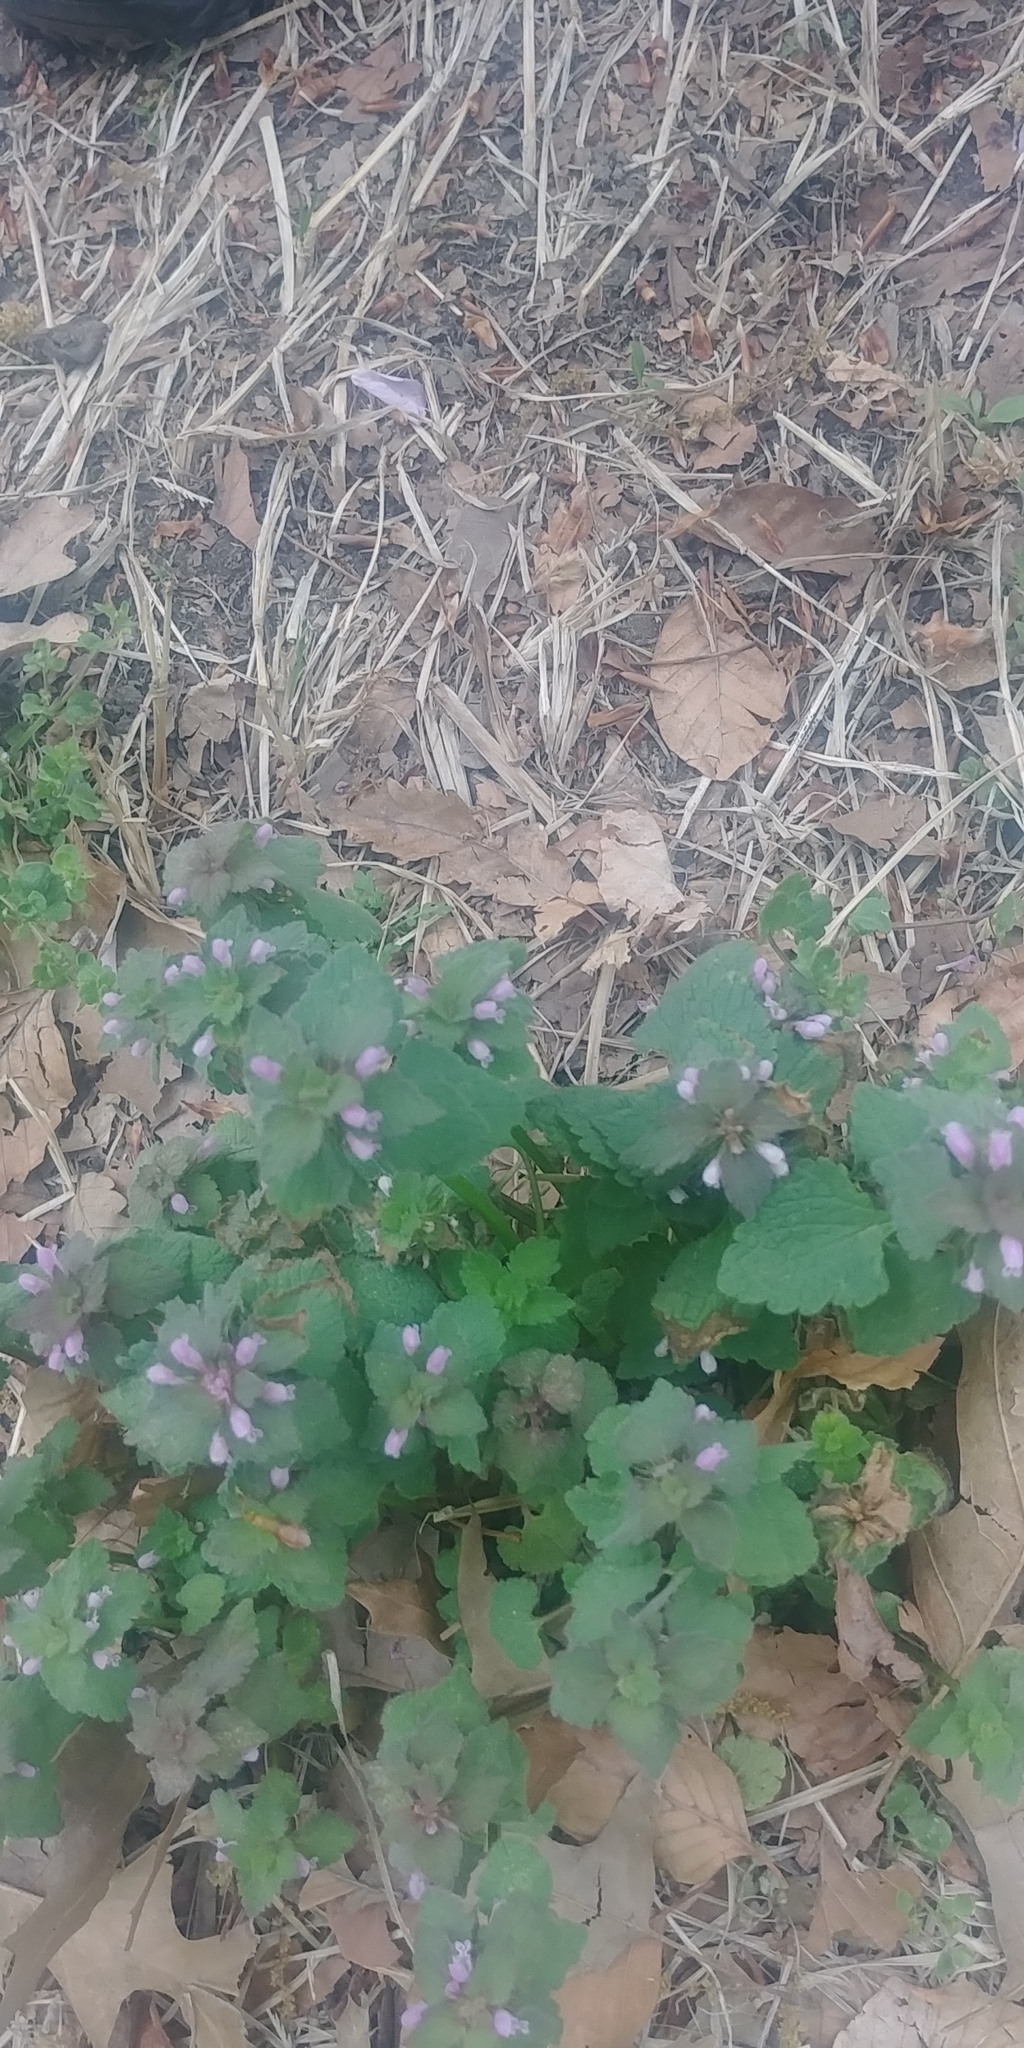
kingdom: Plantae
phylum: Tracheophyta
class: Magnoliopsida
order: Lamiales
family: Lamiaceae
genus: Lamium
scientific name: Lamium purpureum
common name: Red dead-nettle
